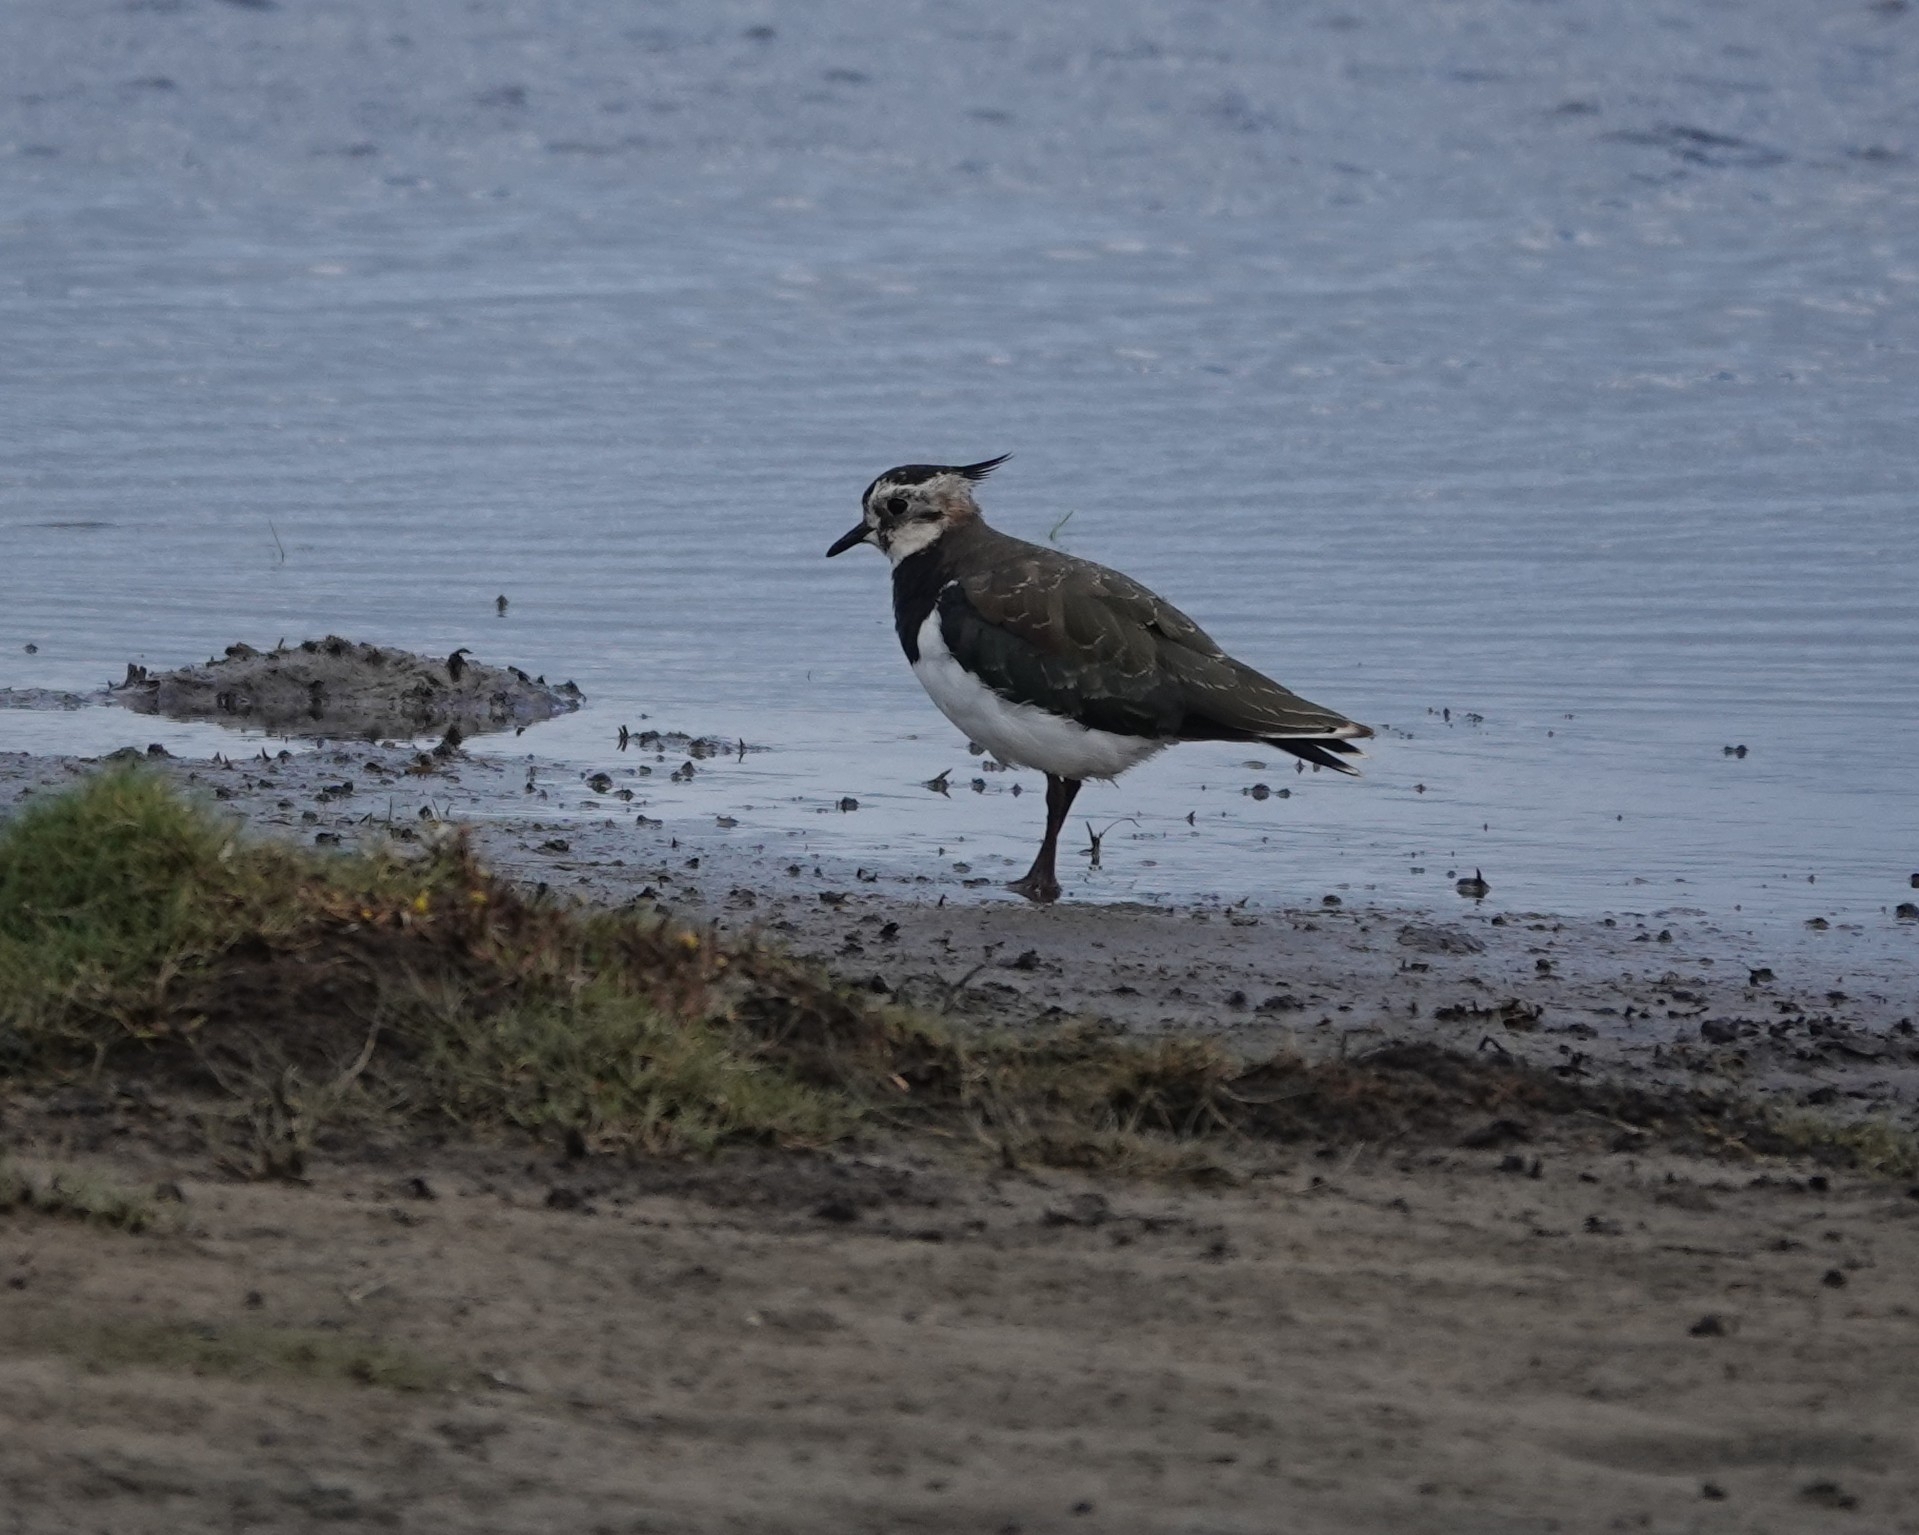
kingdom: Animalia
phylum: Chordata
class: Aves
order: Charadriiformes
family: Charadriidae
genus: Vanellus
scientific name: Vanellus vanellus
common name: Northern lapwing
